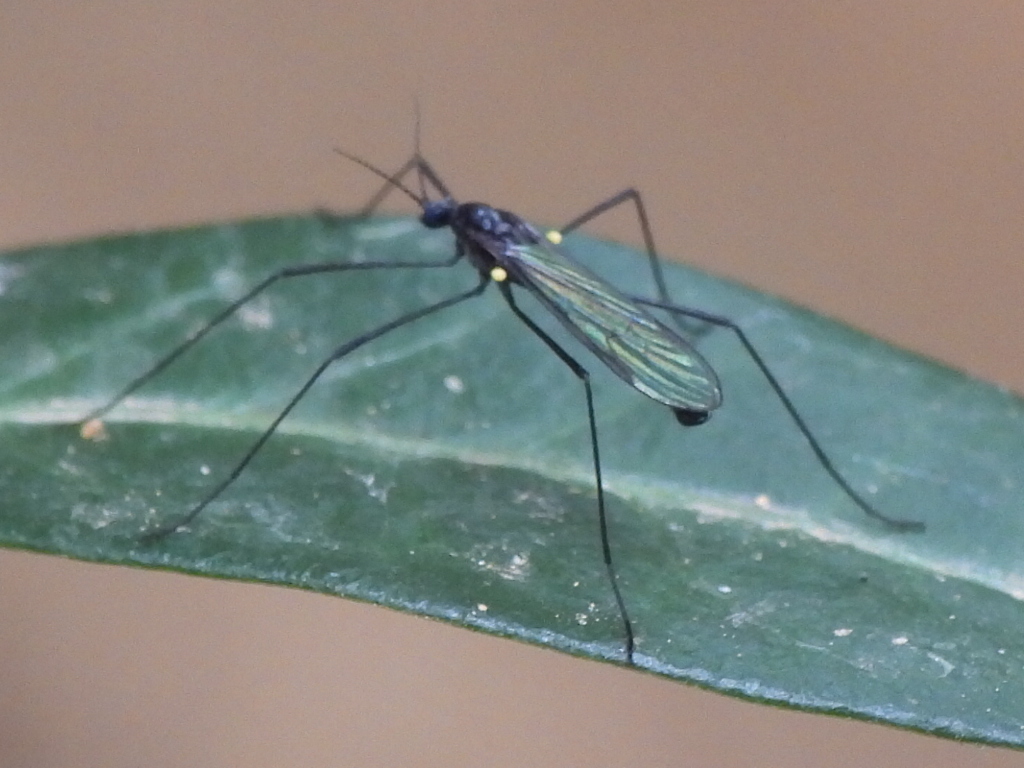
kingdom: Animalia
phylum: Arthropoda
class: Insecta
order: Diptera
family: Limoniidae
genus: Gnophomyia
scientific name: Gnophomyia tristissima
